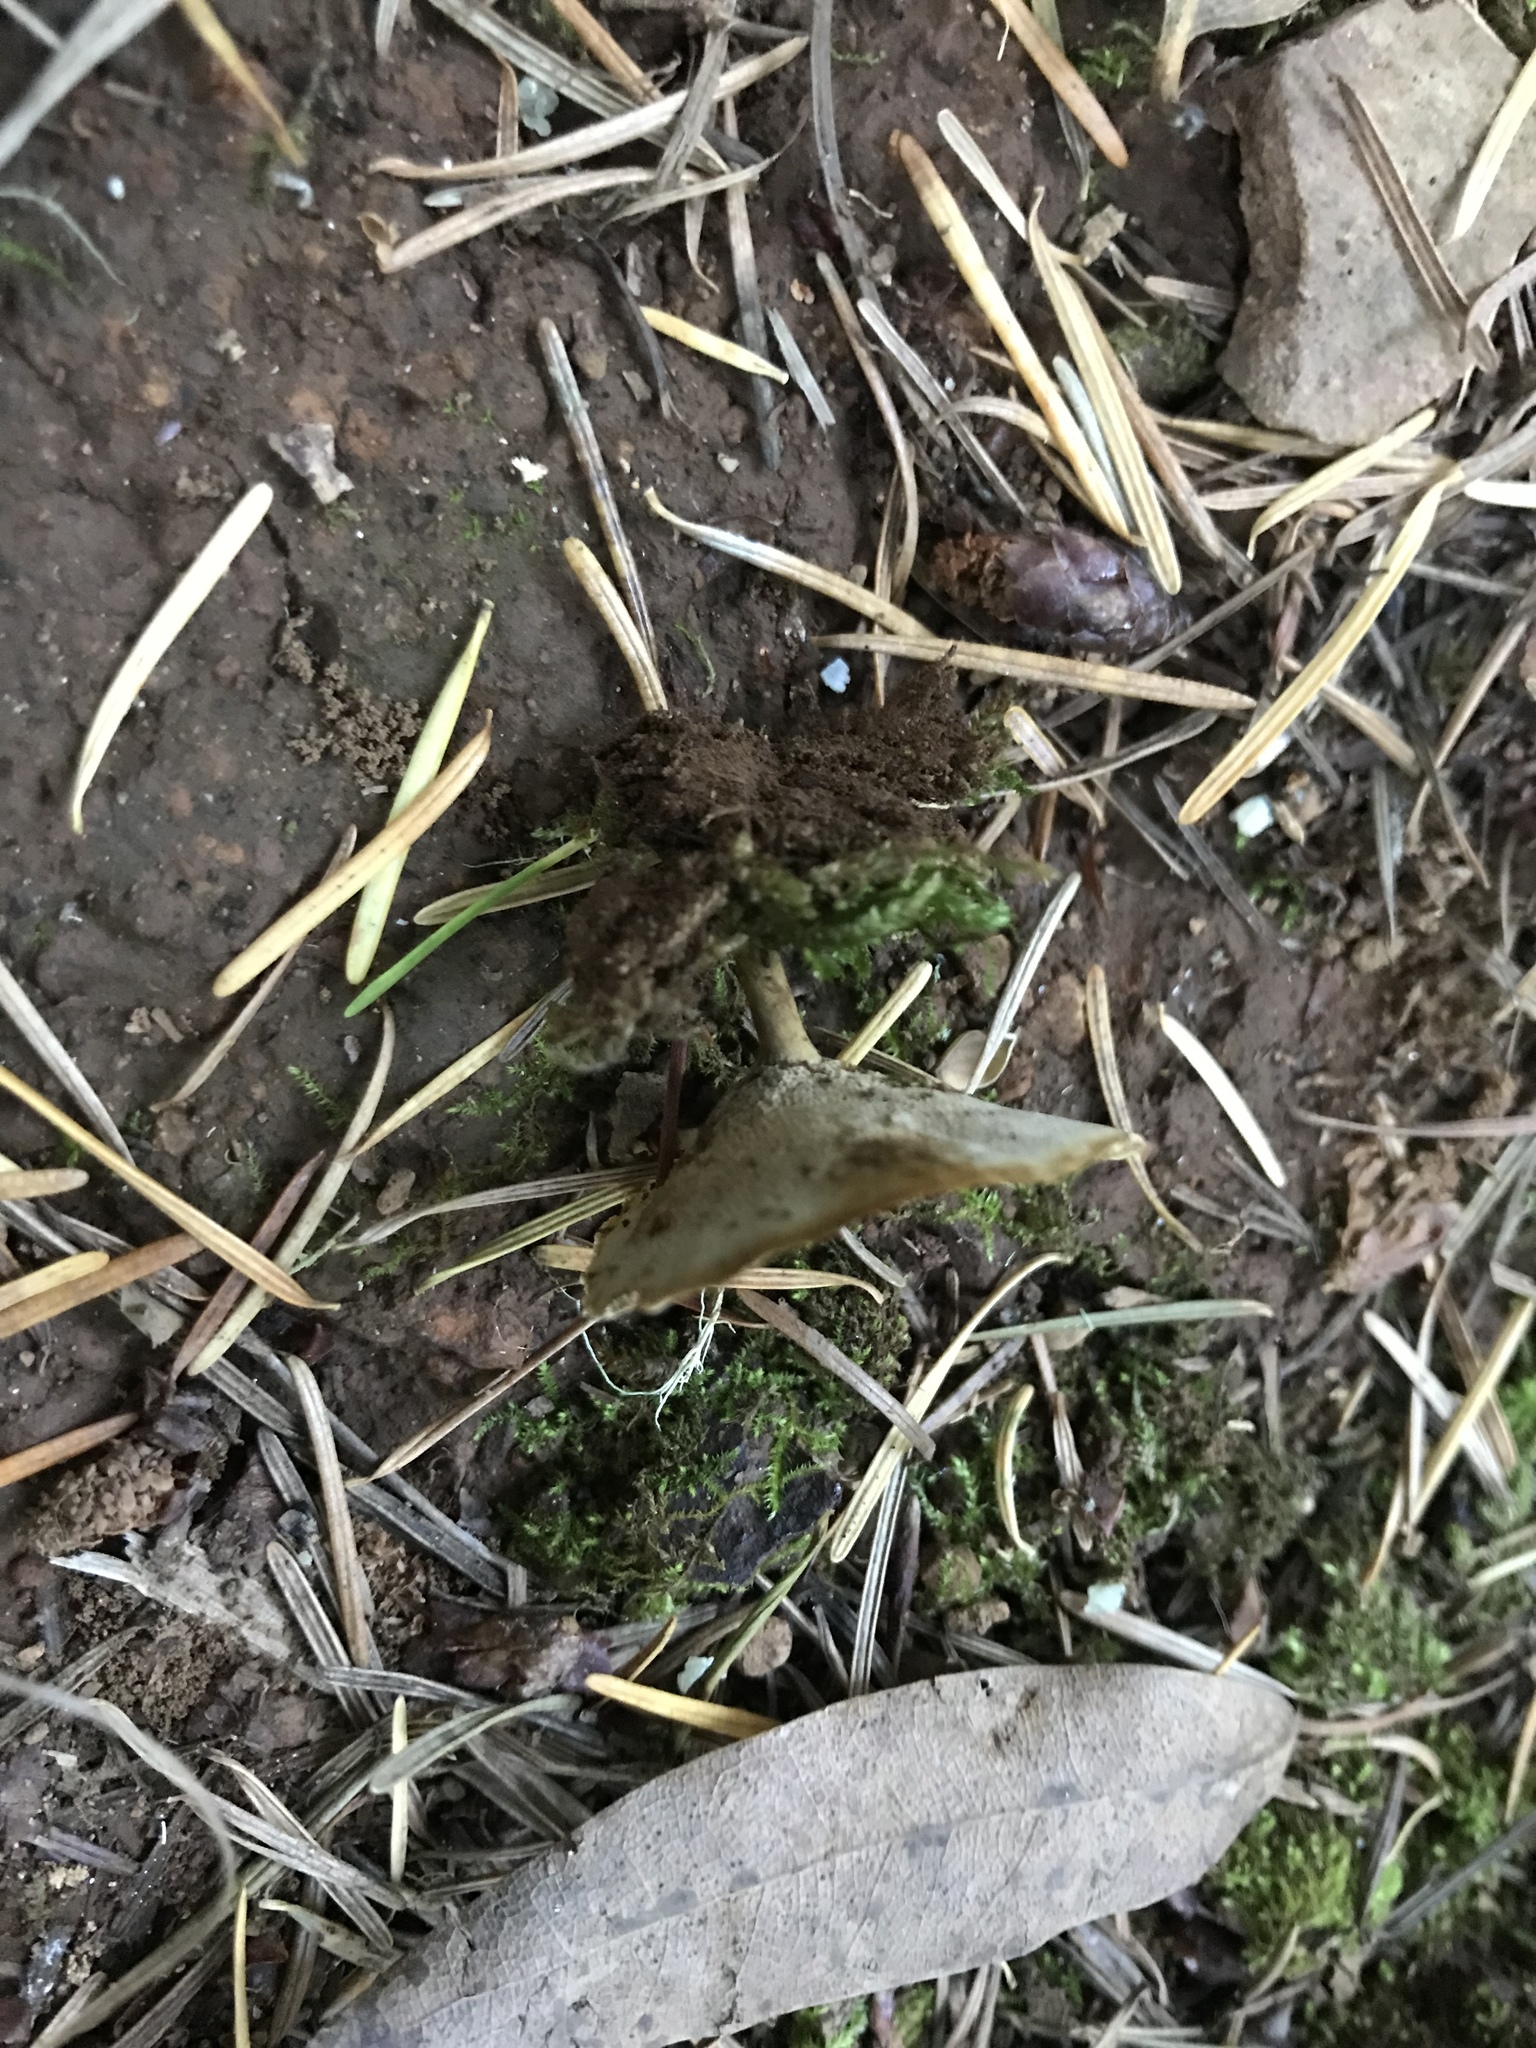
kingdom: Fungi
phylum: Basidiomycota
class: Agaricomycetes
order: Hymenochaetales
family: Hymenochaetaceae
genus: Coltricia
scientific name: Coltricia perennis
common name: Tiger's eye
